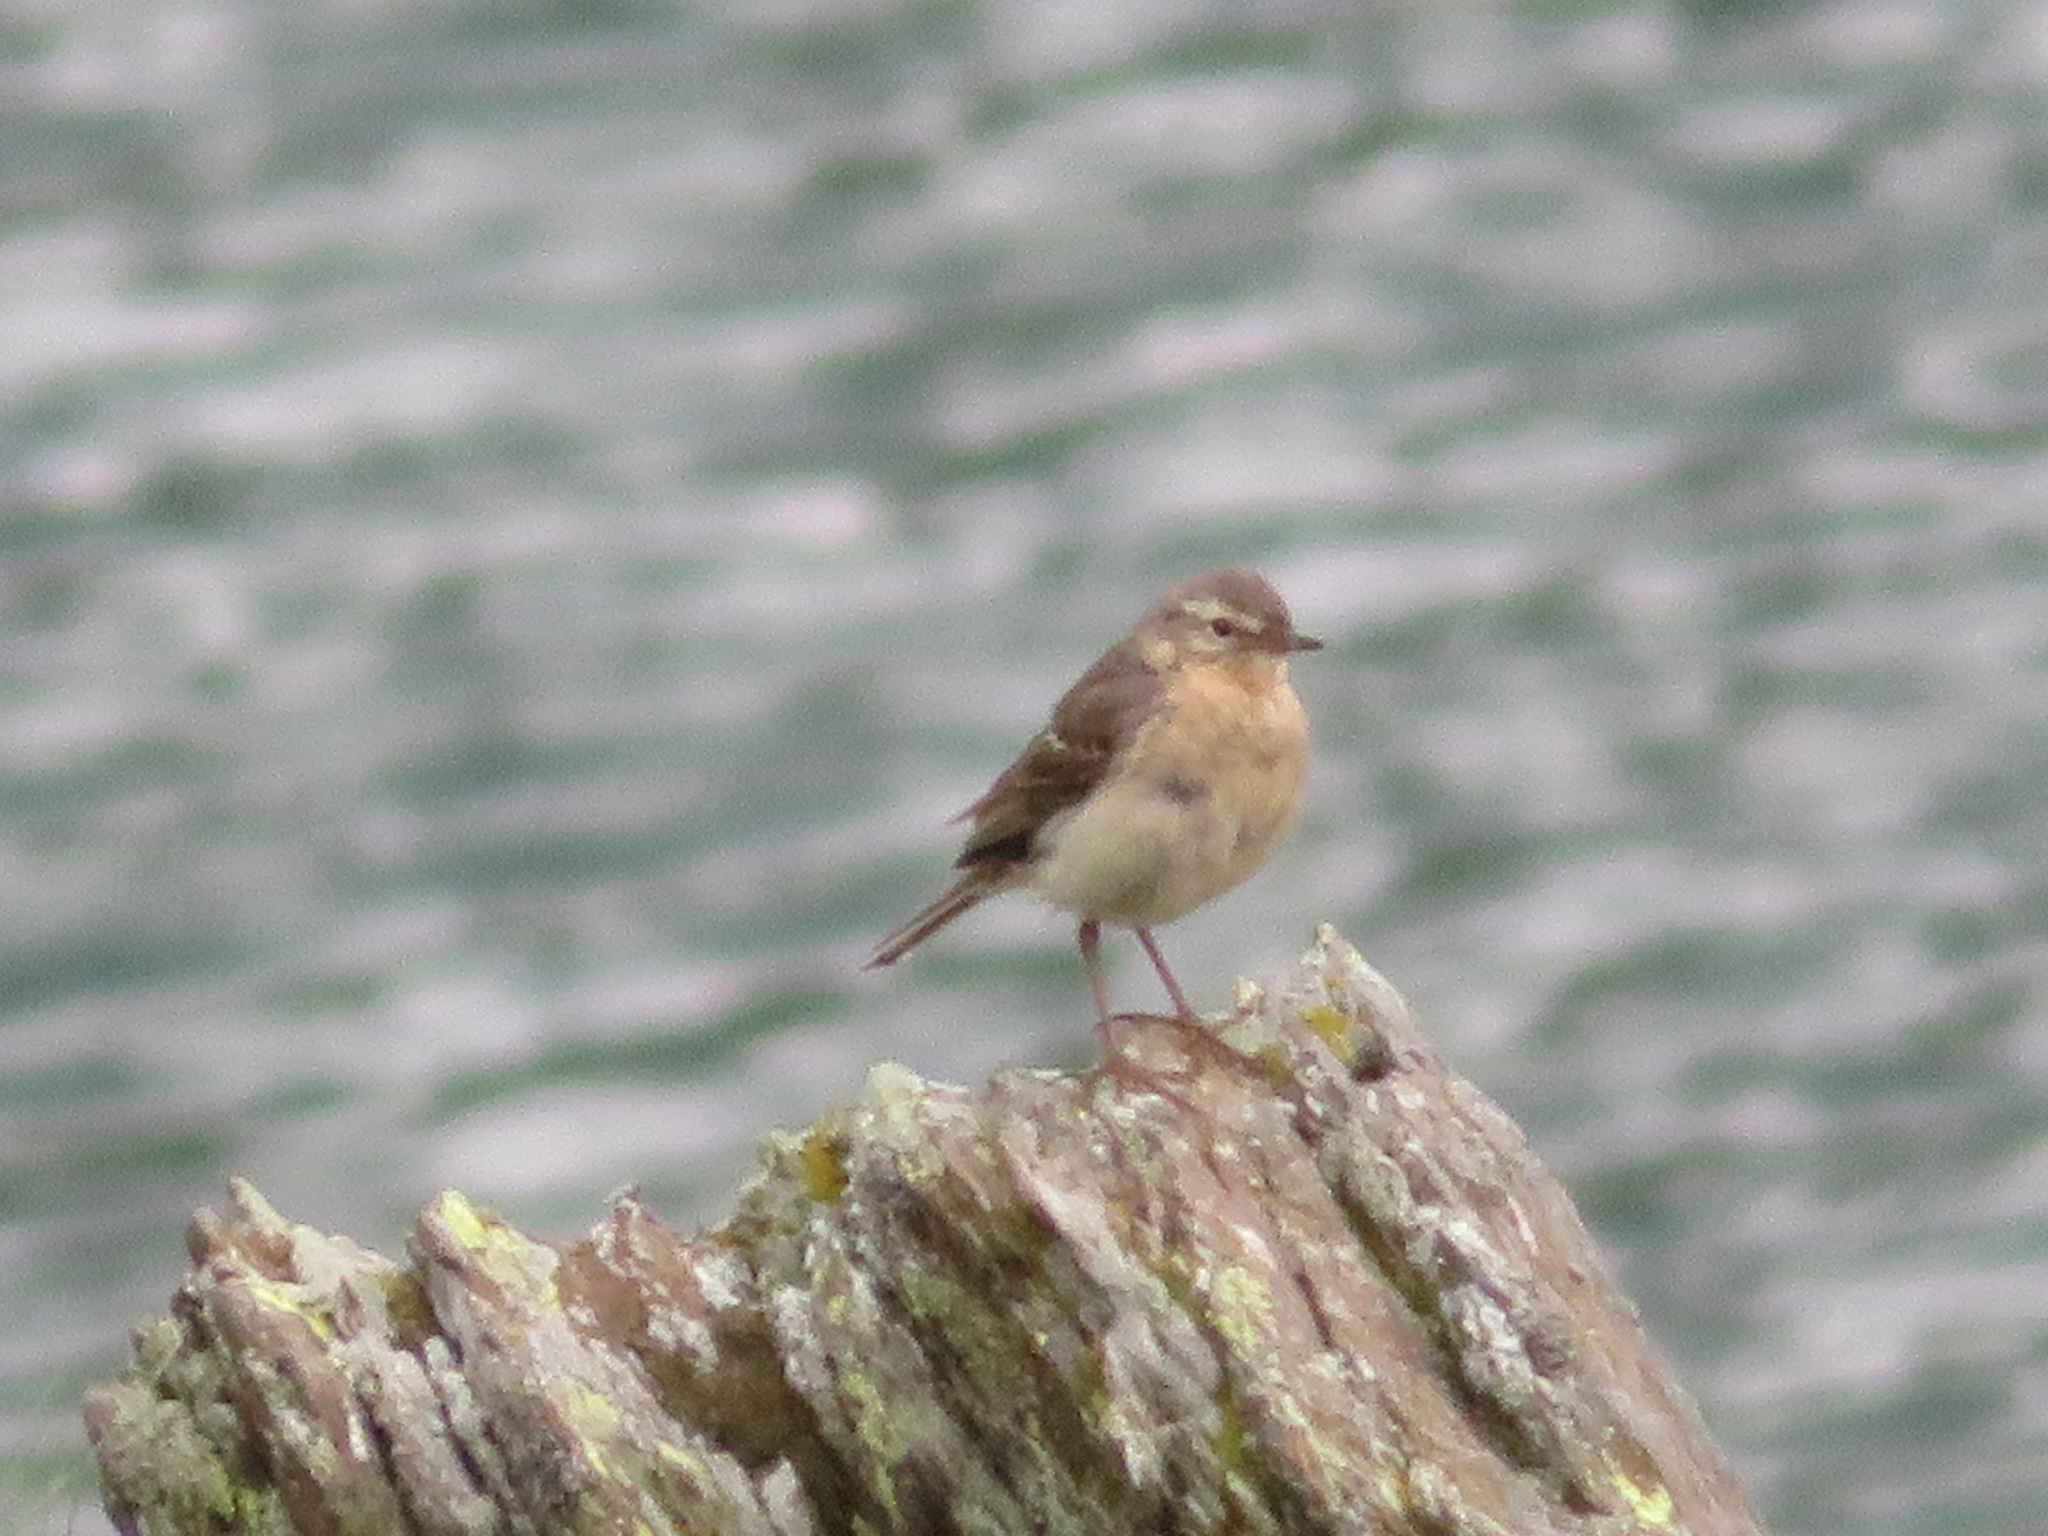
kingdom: Animalia
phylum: Chordata
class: Aves
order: Passeriformes
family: Motacillidae
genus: Anthus
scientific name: Anthus spinoletta
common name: Water pipit
